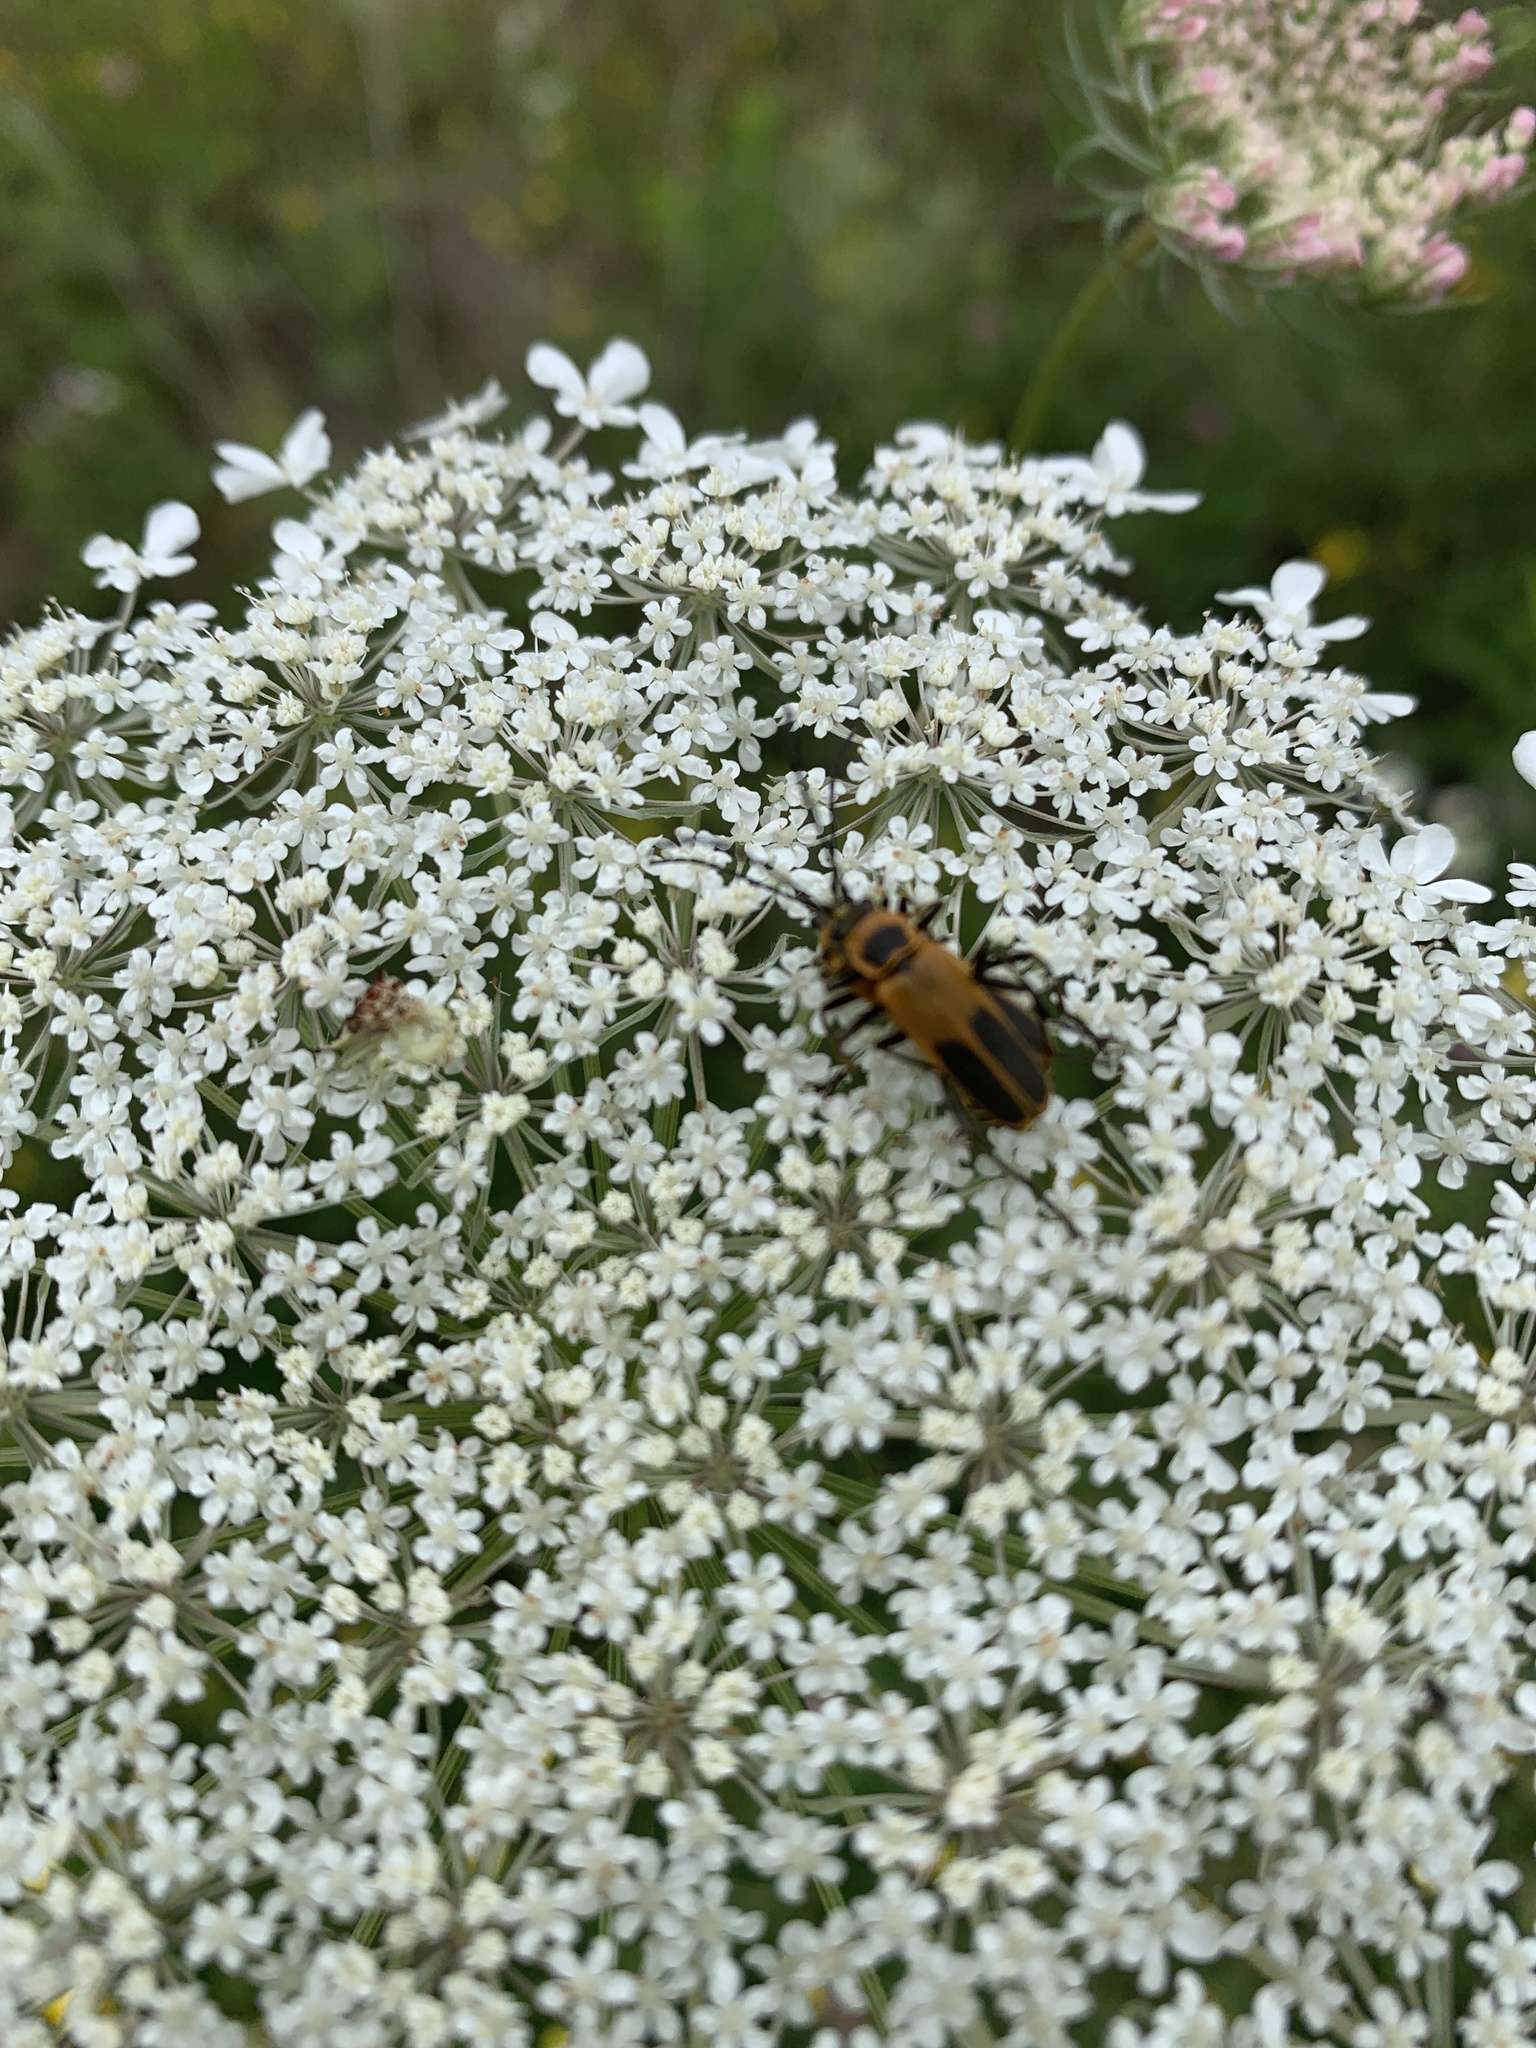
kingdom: Animalia
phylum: Arthropoda
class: Insecta
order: Coleoptera
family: Cantharidae
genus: Chauliognathus
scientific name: Chauliognathus pensylvanicus
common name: Goldenrod soldier beetle
